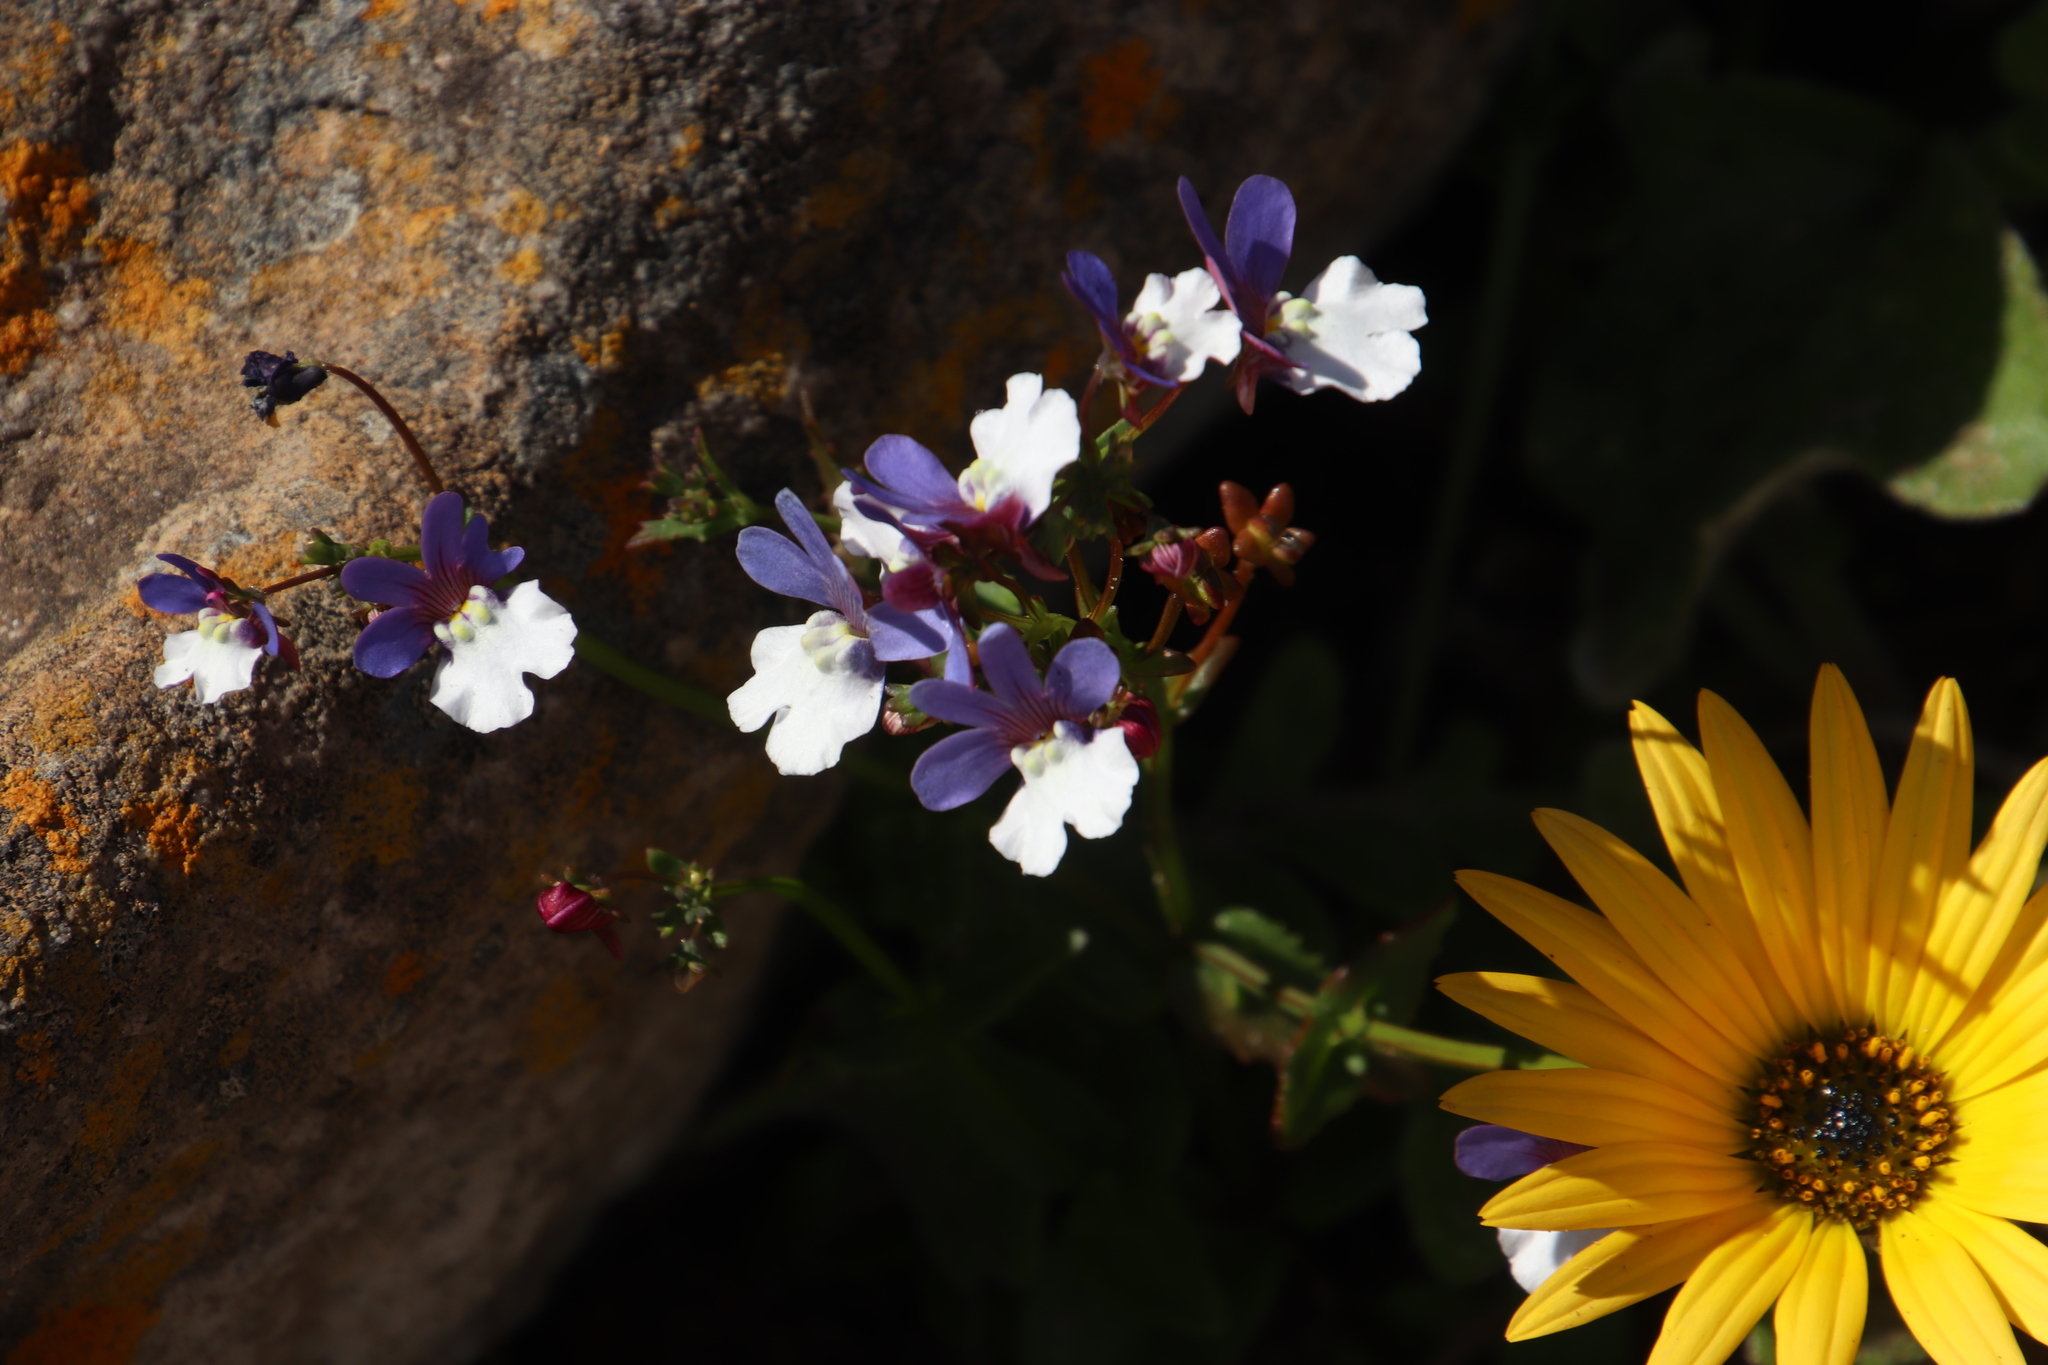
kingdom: Plantae
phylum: Tracheophyta
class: Magnoliopsida
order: Lamiales
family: Scrophulariaceae
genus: Nemesia
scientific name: Nemesia affinis
